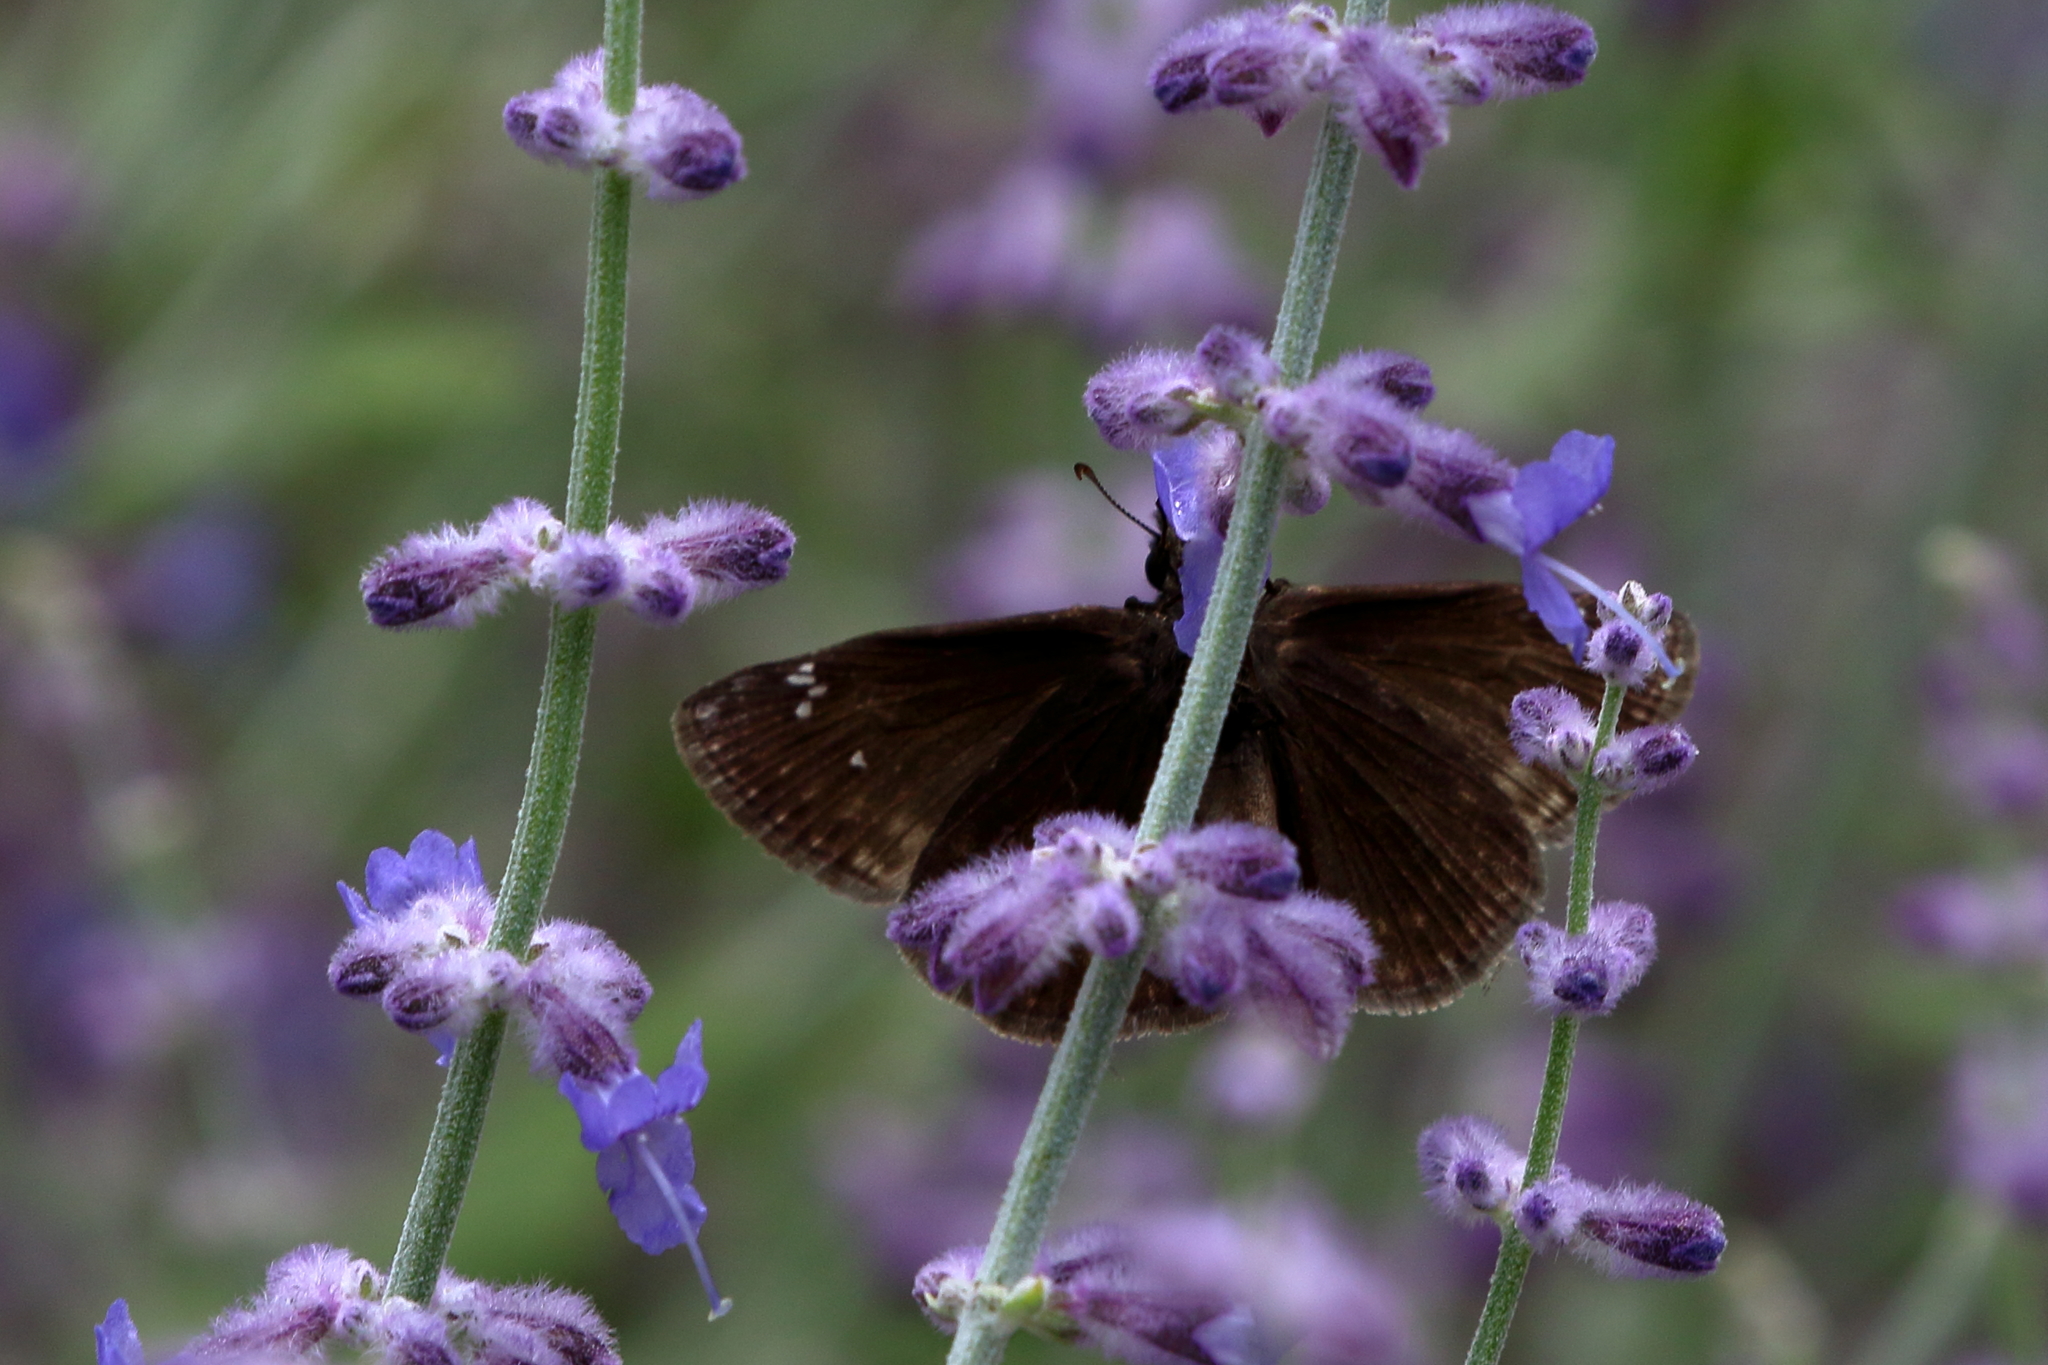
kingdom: Animalia
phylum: Arthropoda
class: Insecta
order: Lepidoptera
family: Hesperiidae
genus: Erynnis
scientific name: Erynnis baptisiae
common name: Wild indigo duskywing
